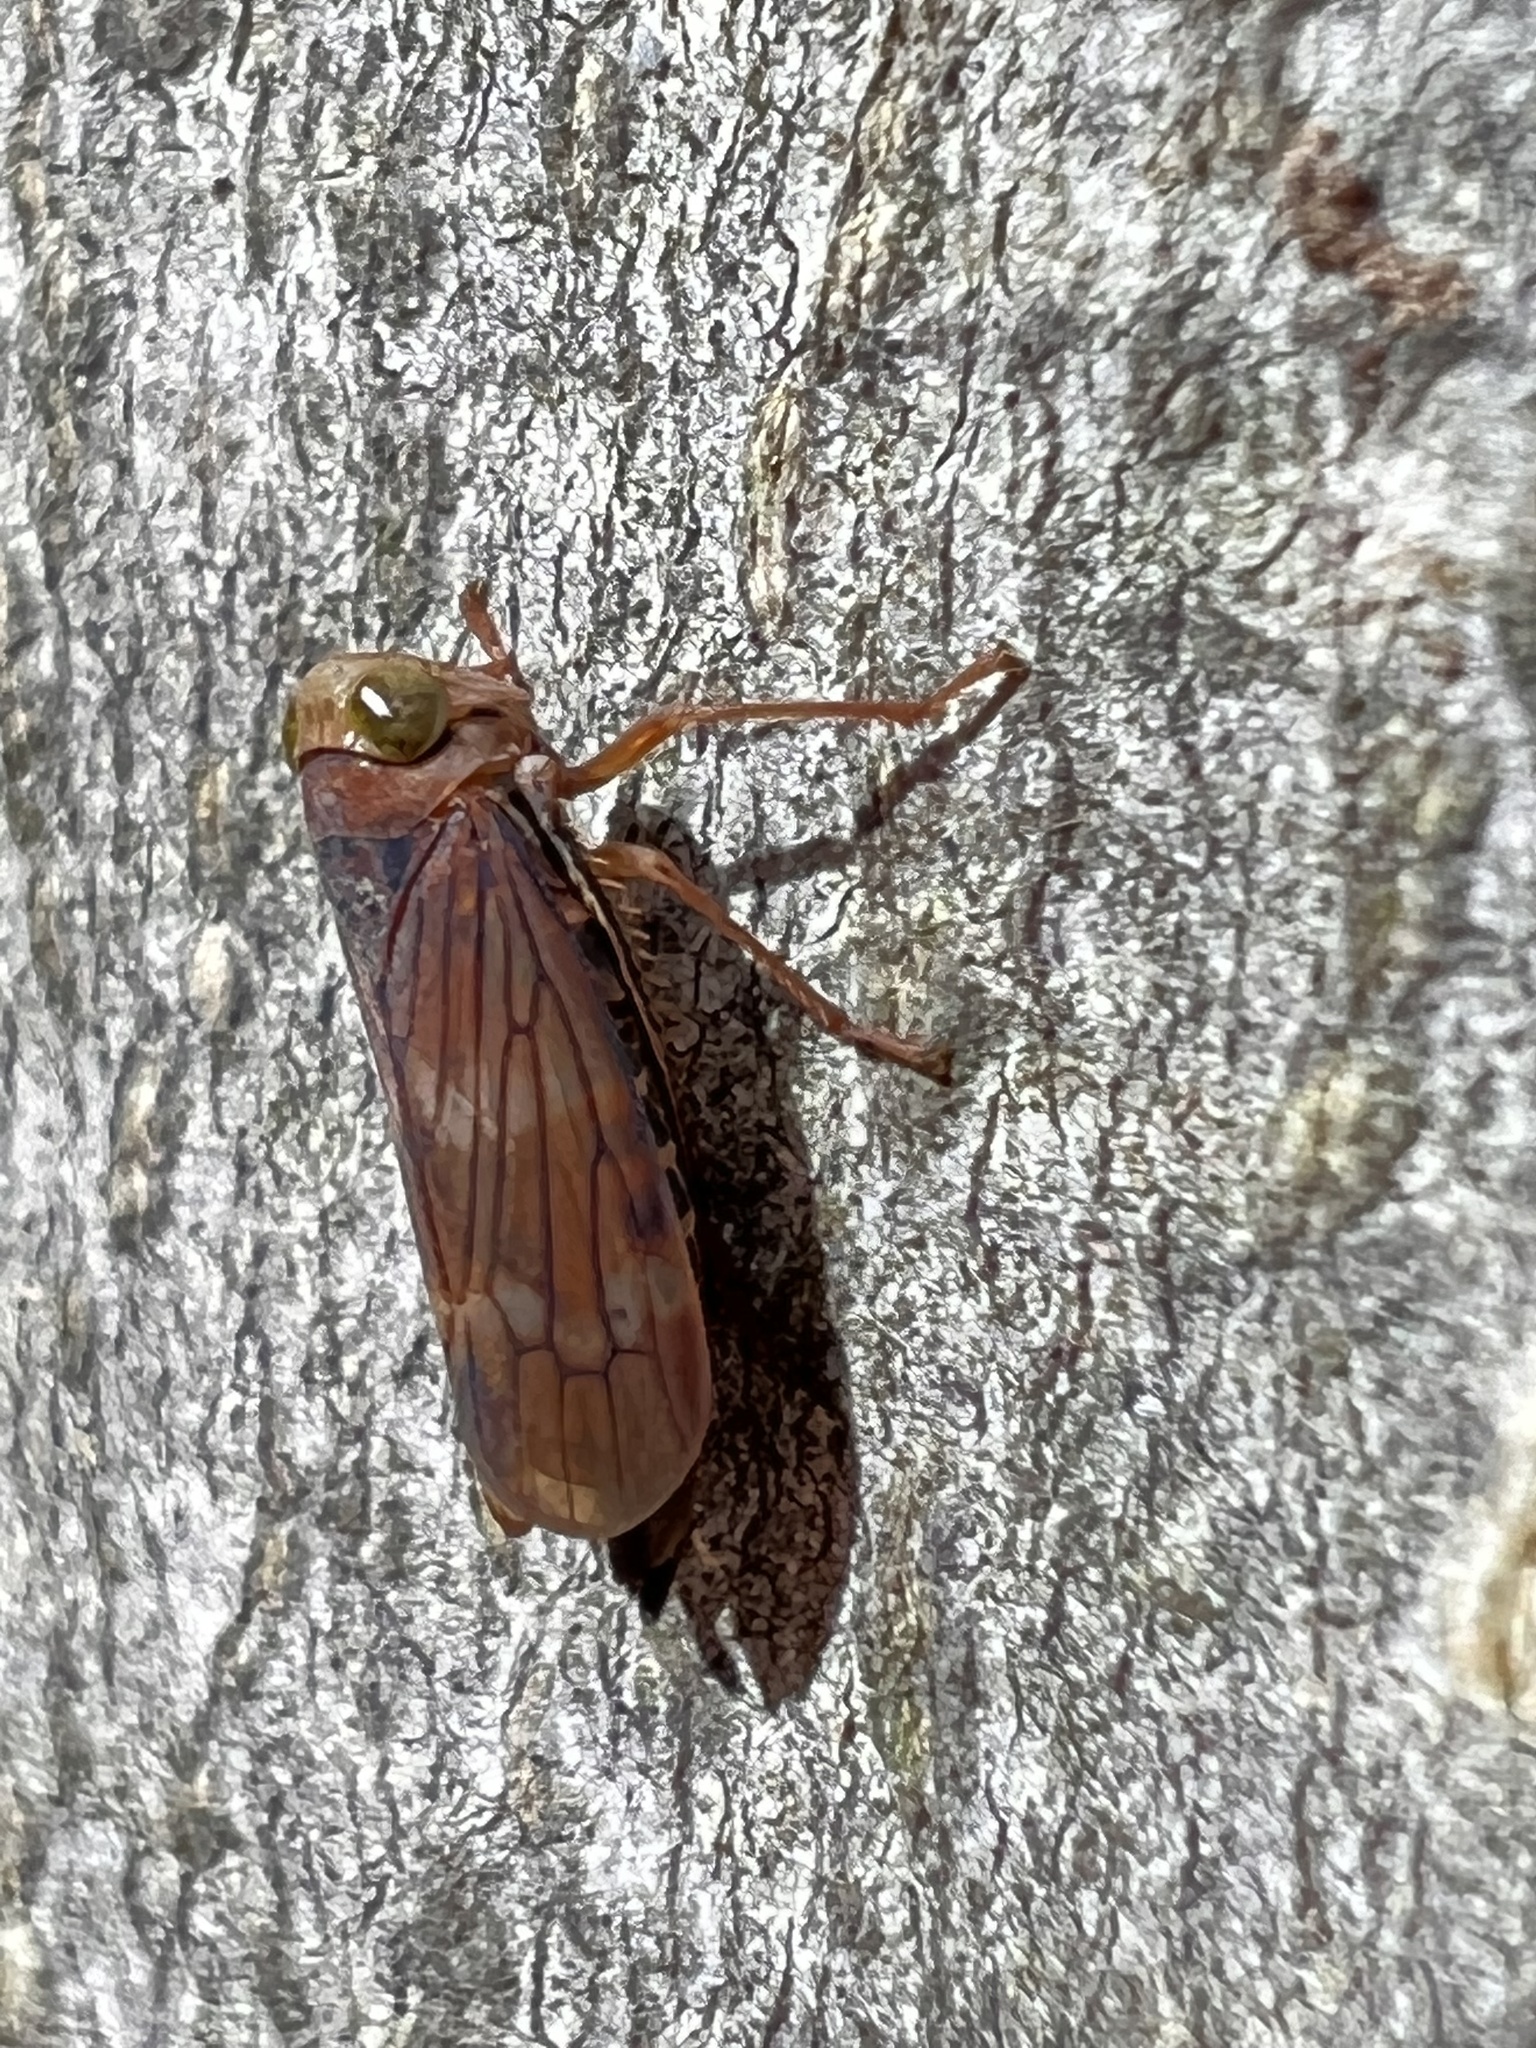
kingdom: Animalia
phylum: Arthropoda
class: Insecta
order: Hemiptera
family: Cicadellidae
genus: Jikradia
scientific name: Jikradia olitoria
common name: Coppery leafhopper
